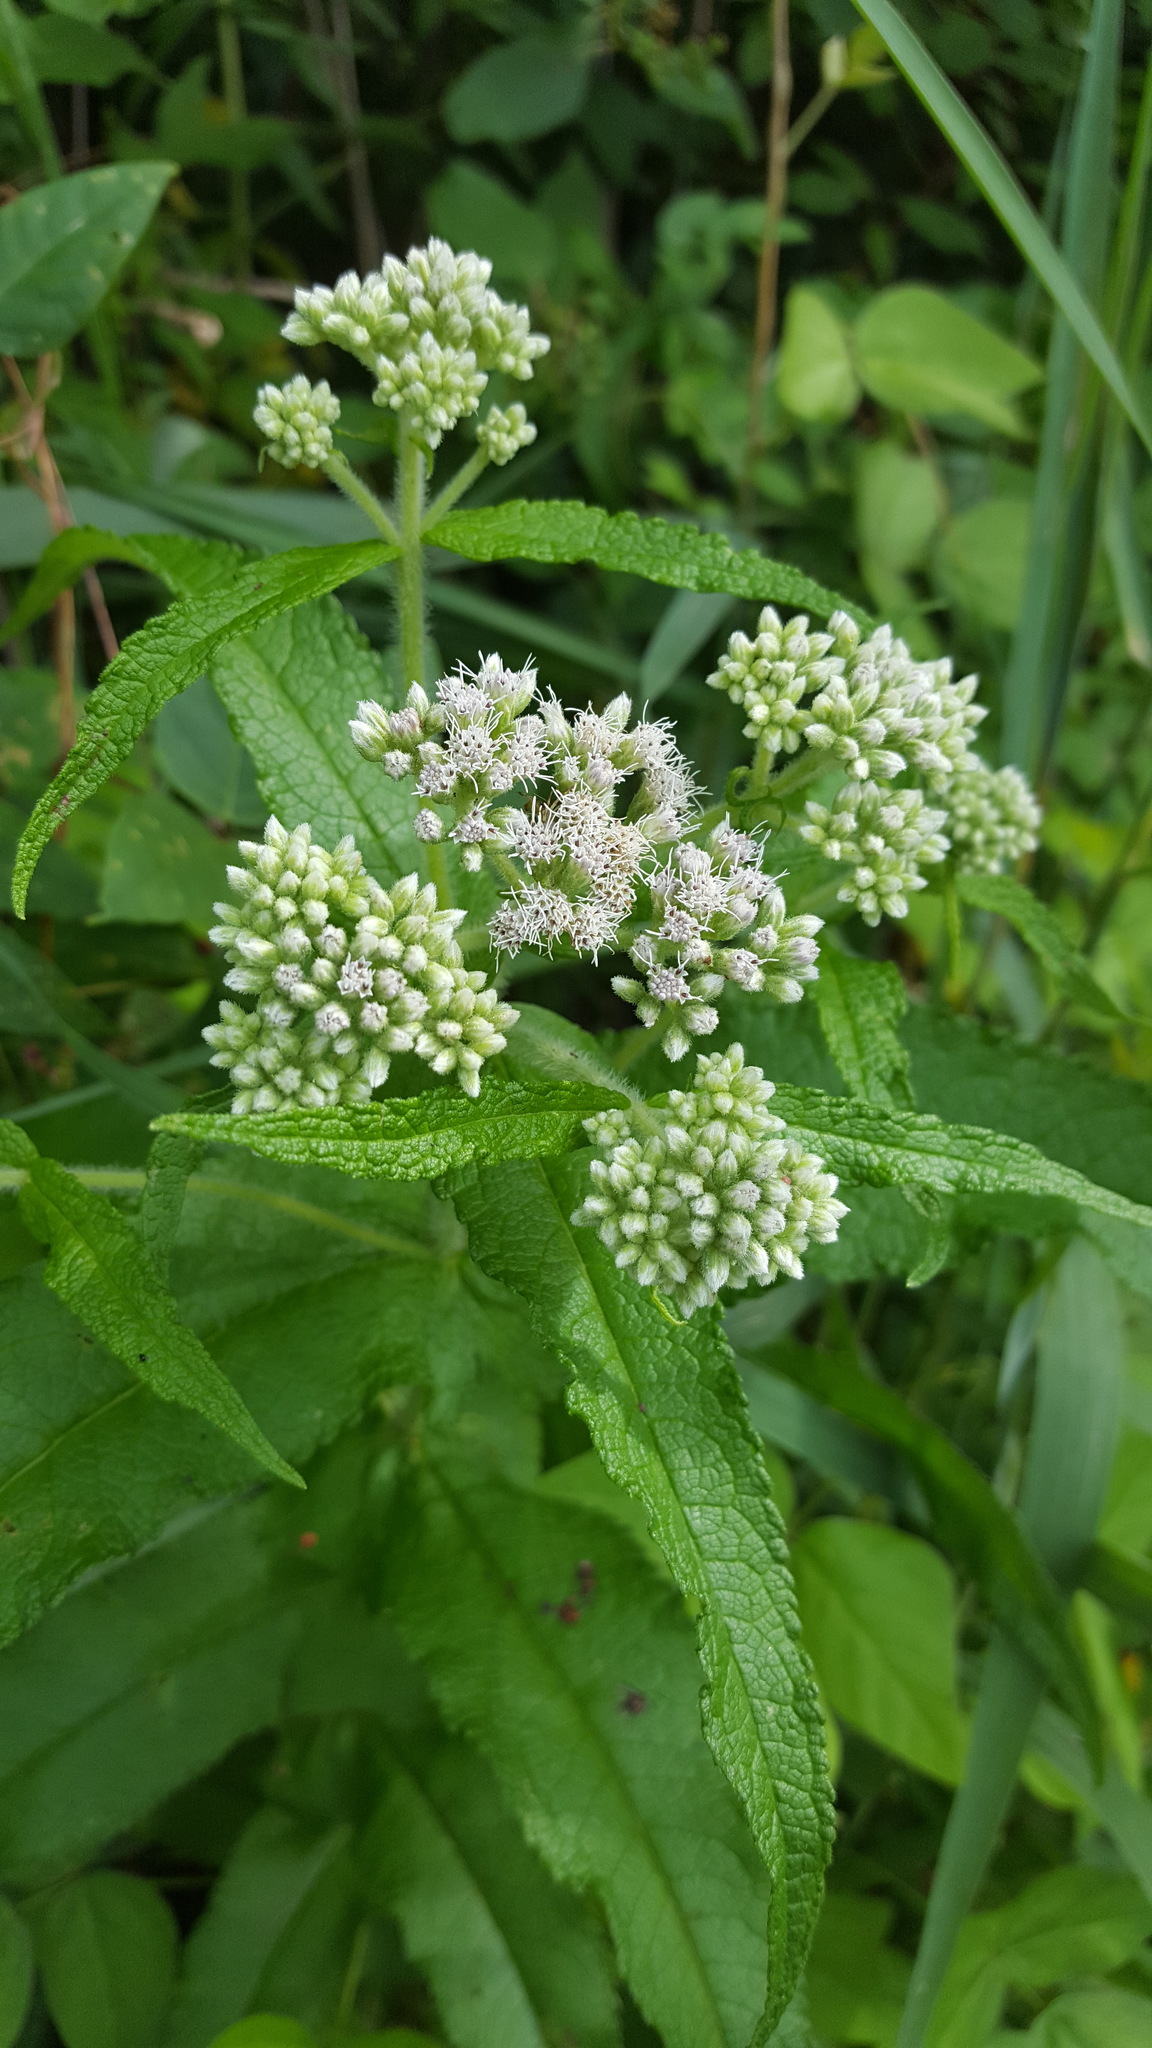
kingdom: Plantae
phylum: Tracheophyta
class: Magnoliopsida
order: Asterales
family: Asteraceae
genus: Eupatorium
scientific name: Eupatorium perfoliatum
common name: Boneset
